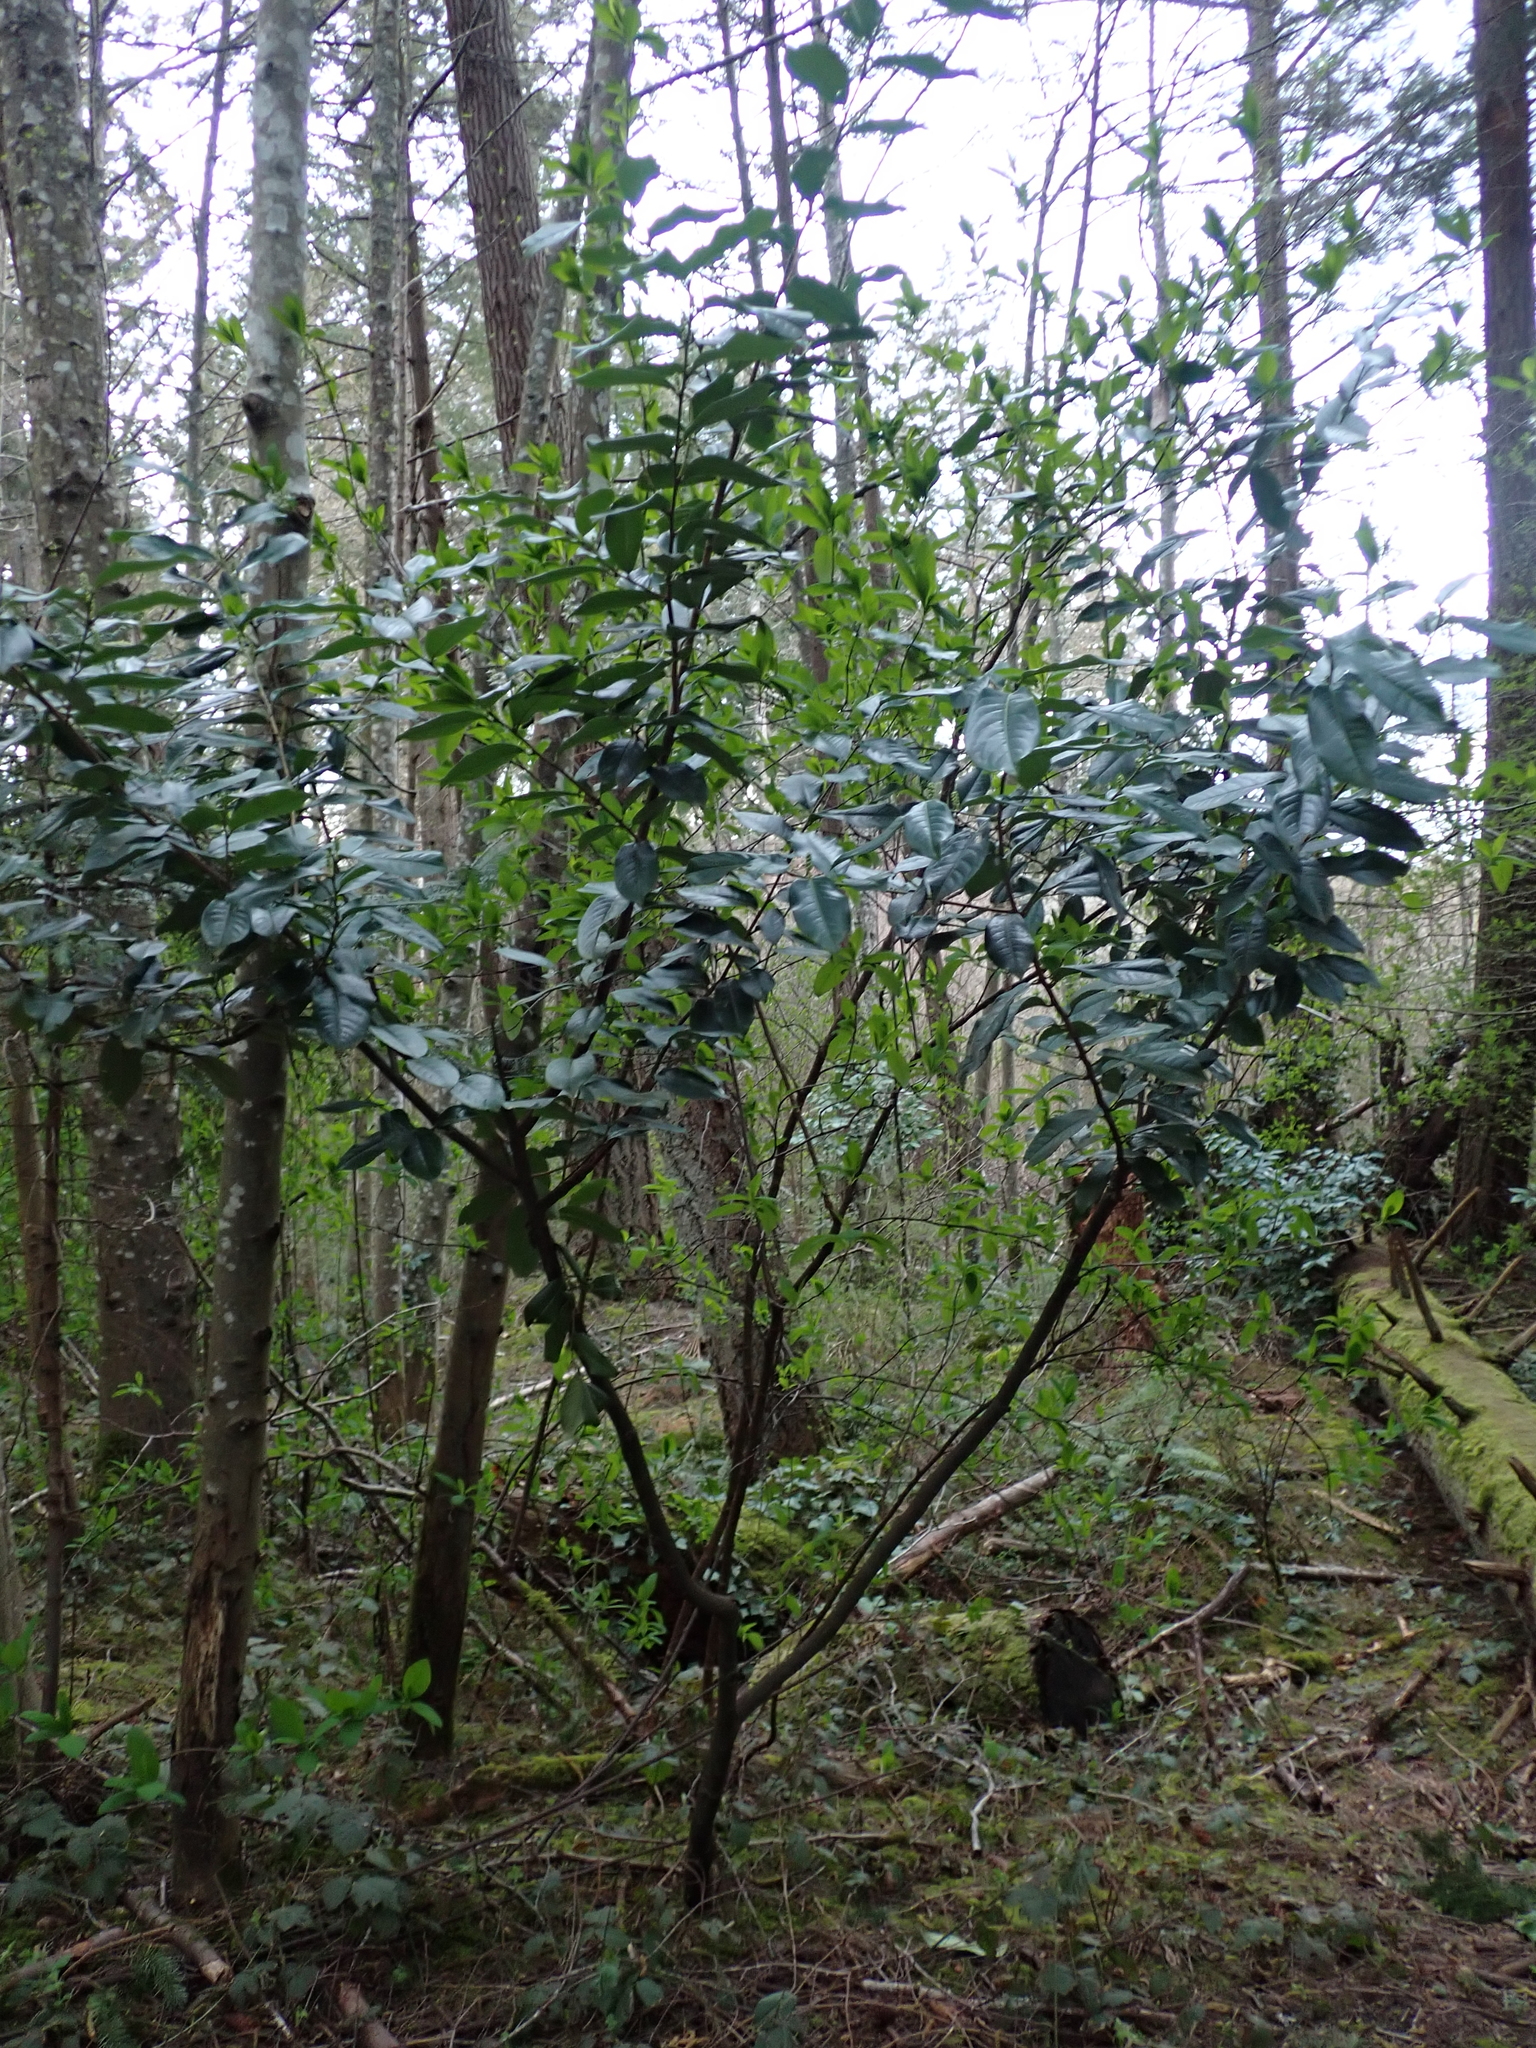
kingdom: Plantae
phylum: Tracheophyta
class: Magnoliopsida
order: Rosales
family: Rosaceae
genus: Prunus
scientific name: Prunus laurocerasus
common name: Cherry laurel
